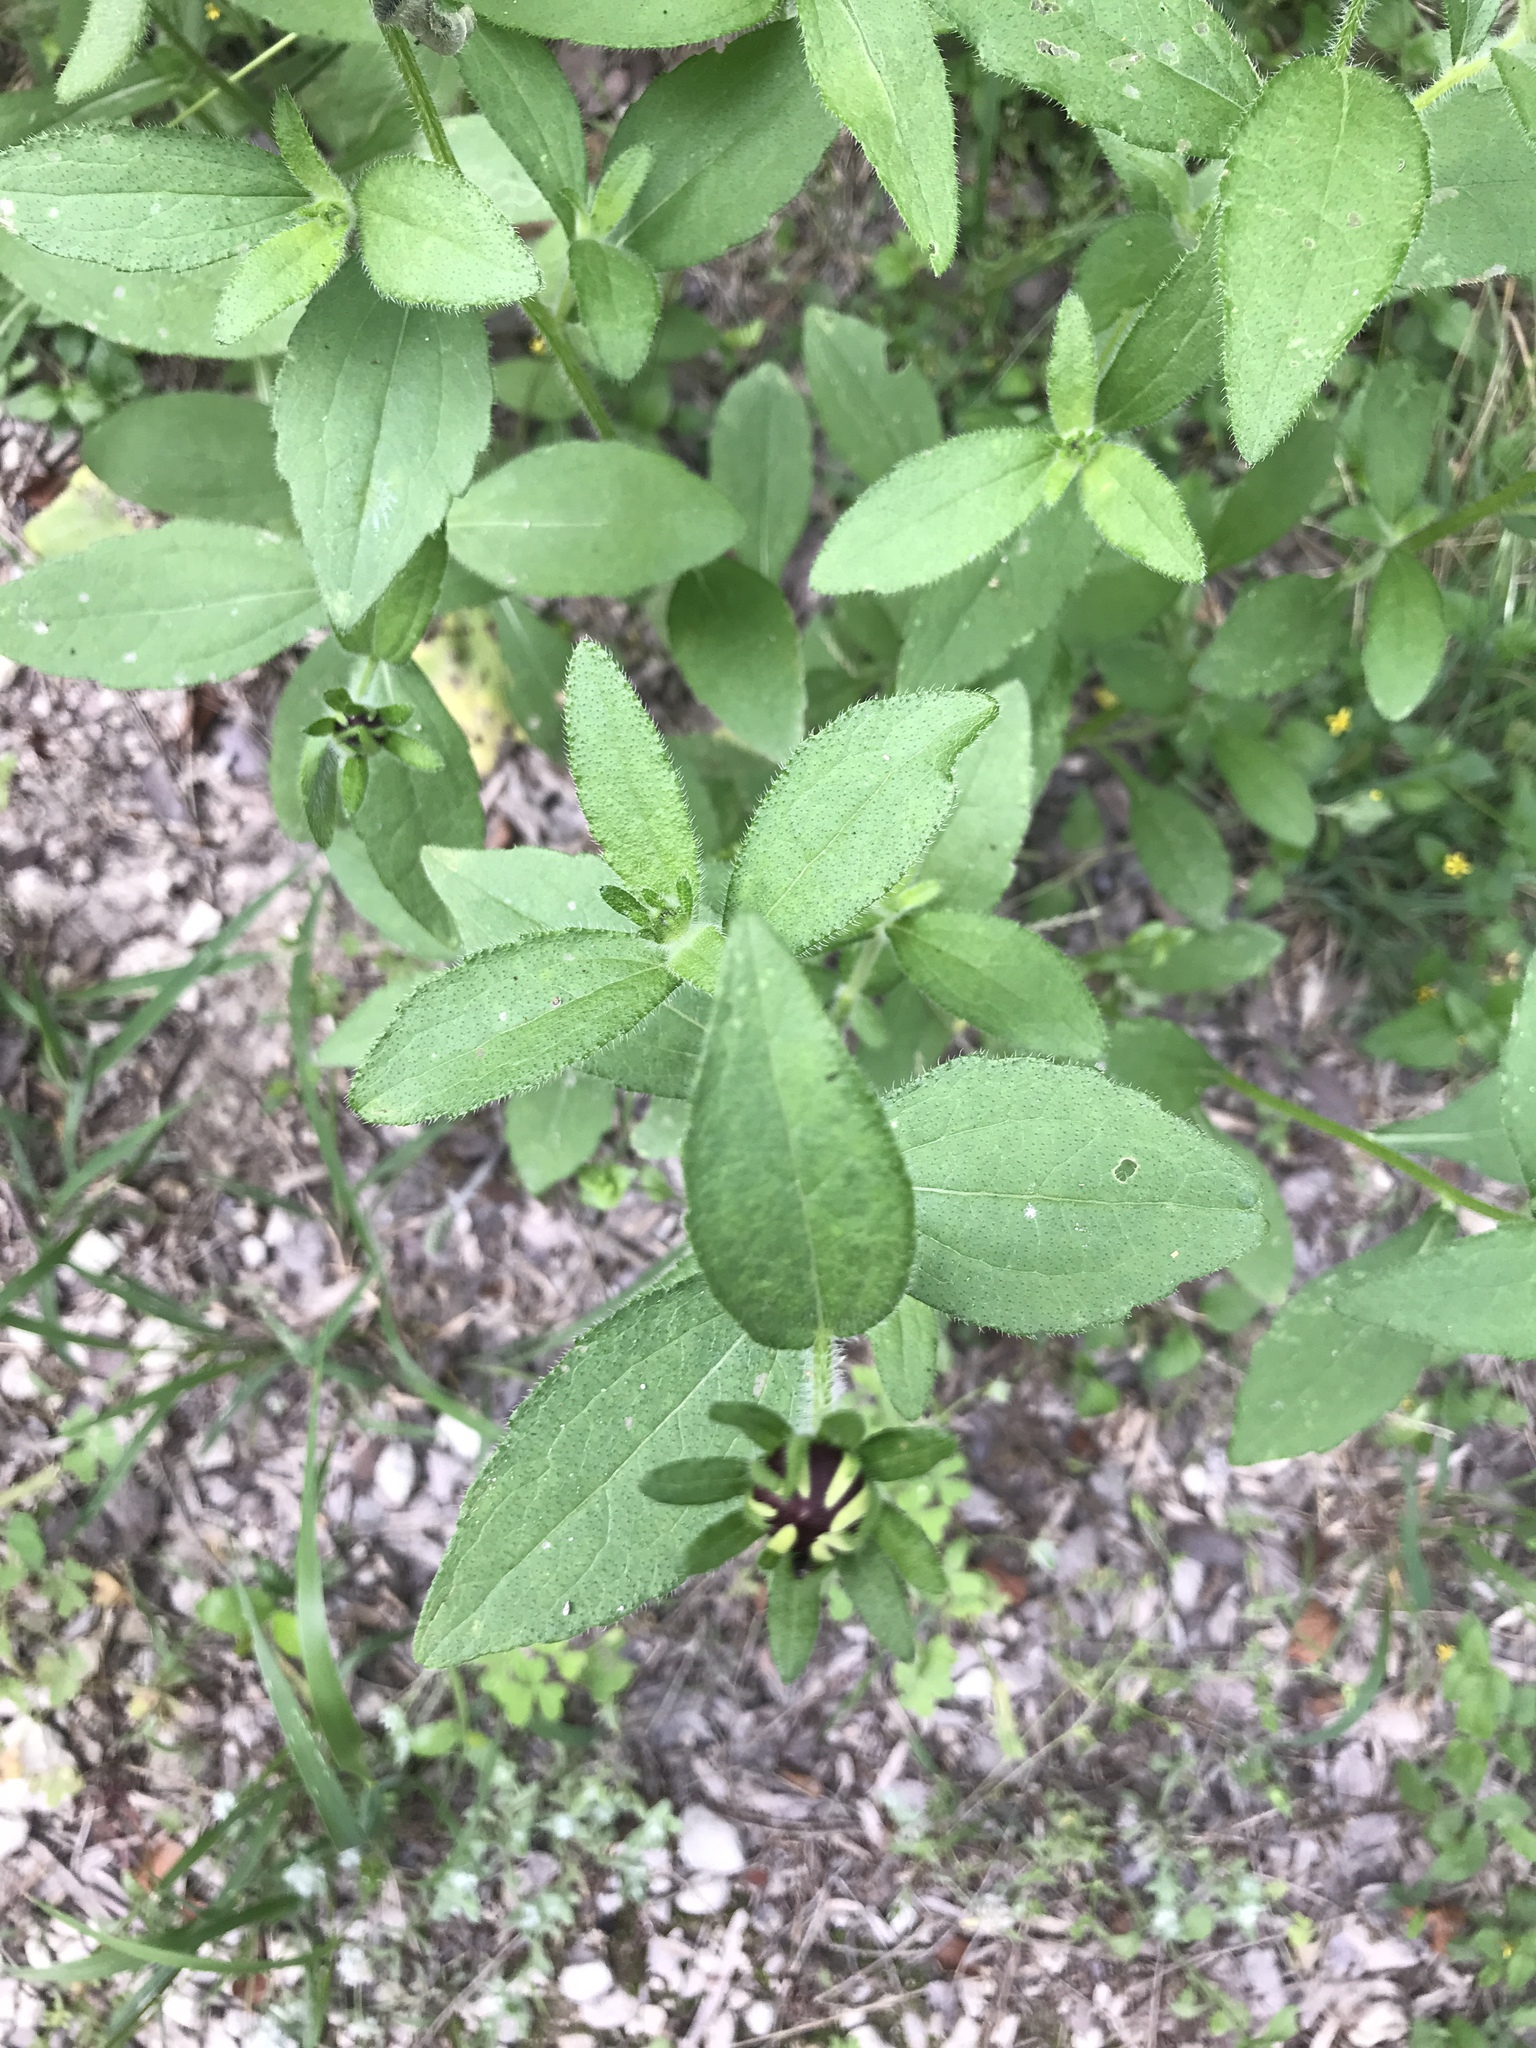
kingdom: Plantae
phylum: Tracheophyta
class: Magnoliopsida
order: Asterales
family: Asteraceae
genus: Rudbeckia
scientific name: Rudbeckia hirta
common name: Black-eyed-susan
